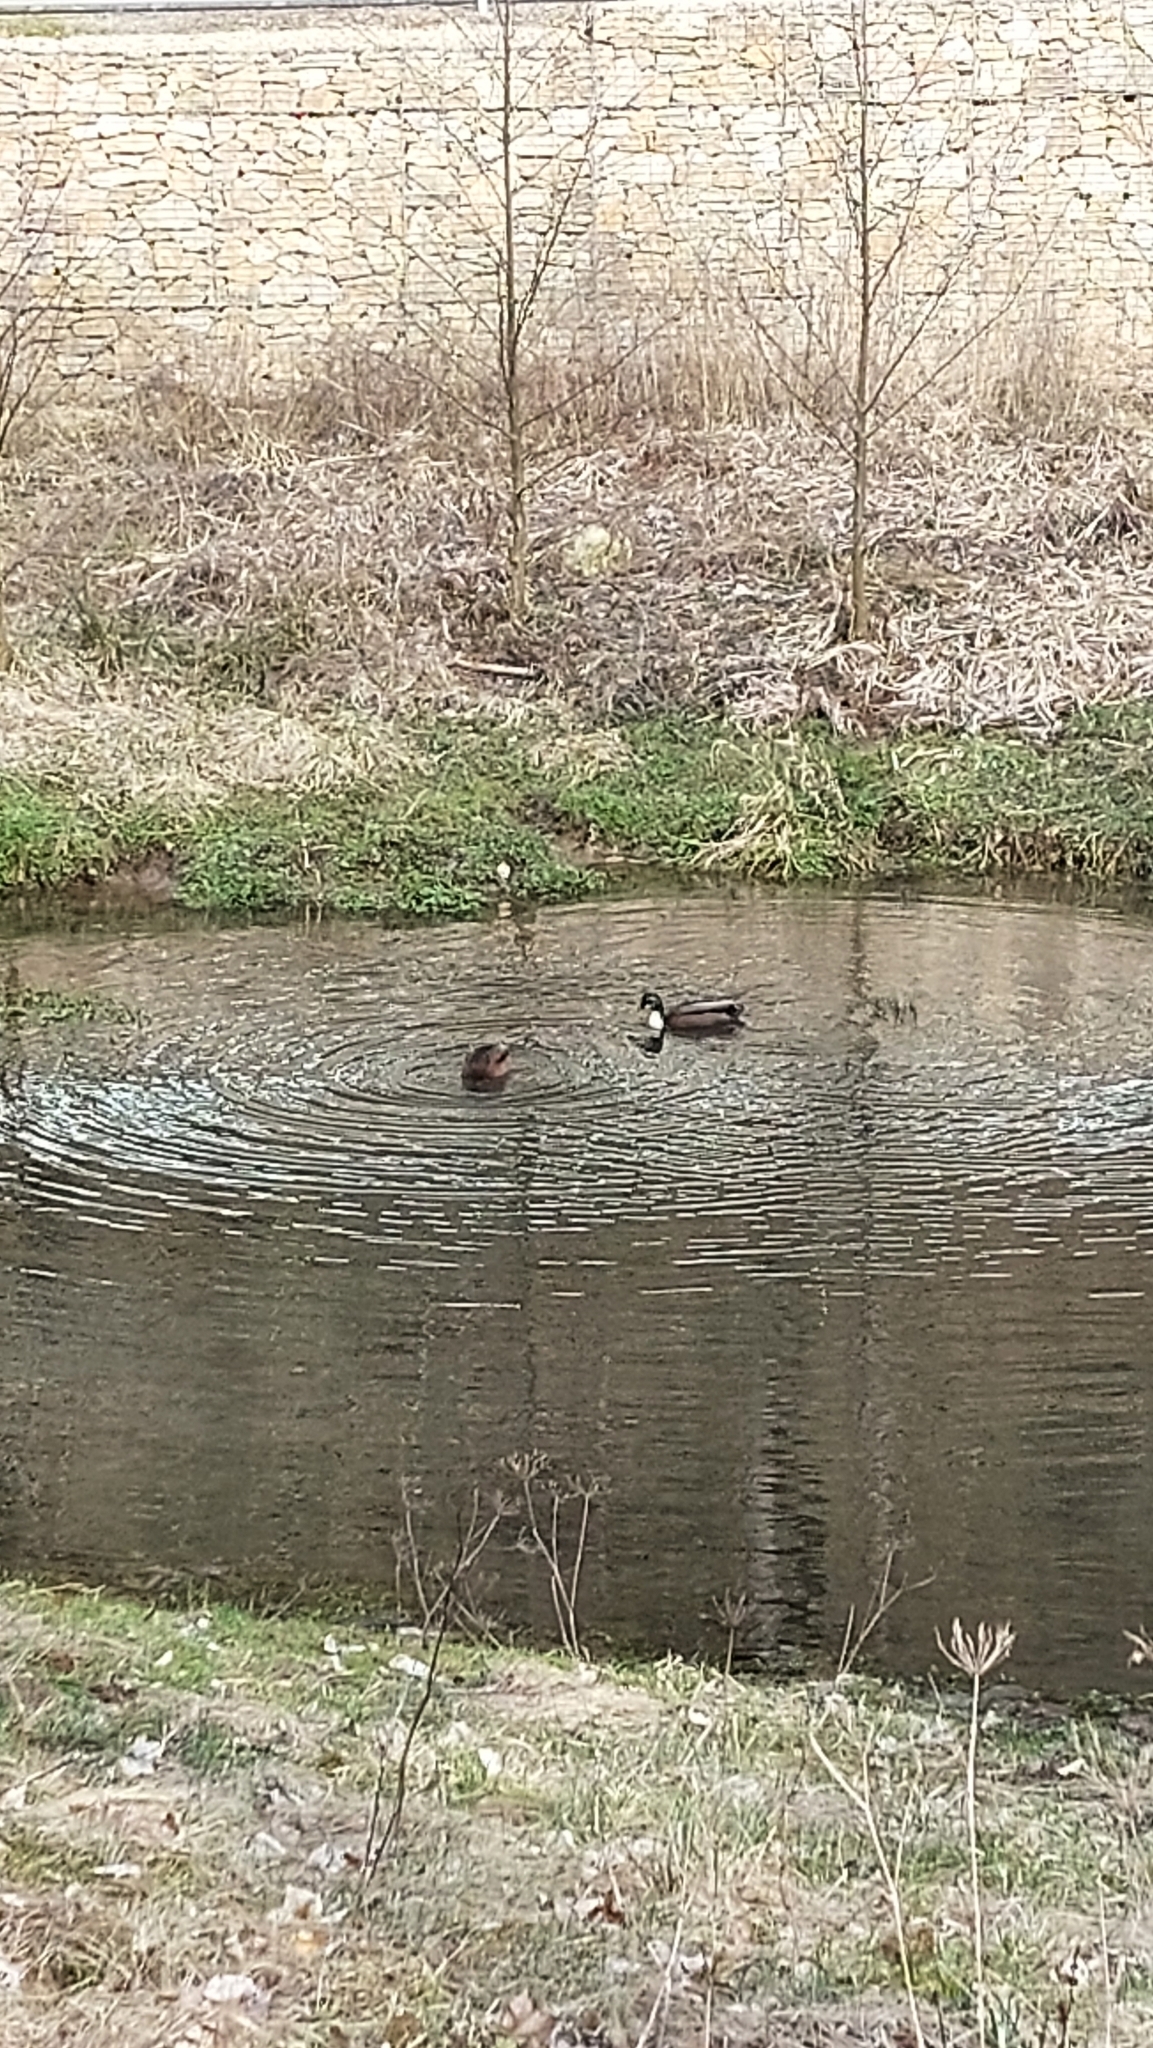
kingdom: Animalia
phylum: Chordata
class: Aves
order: Anseriformes
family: Anatidae
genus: Anas
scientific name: Anas platyrhynchos
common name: Mallard
